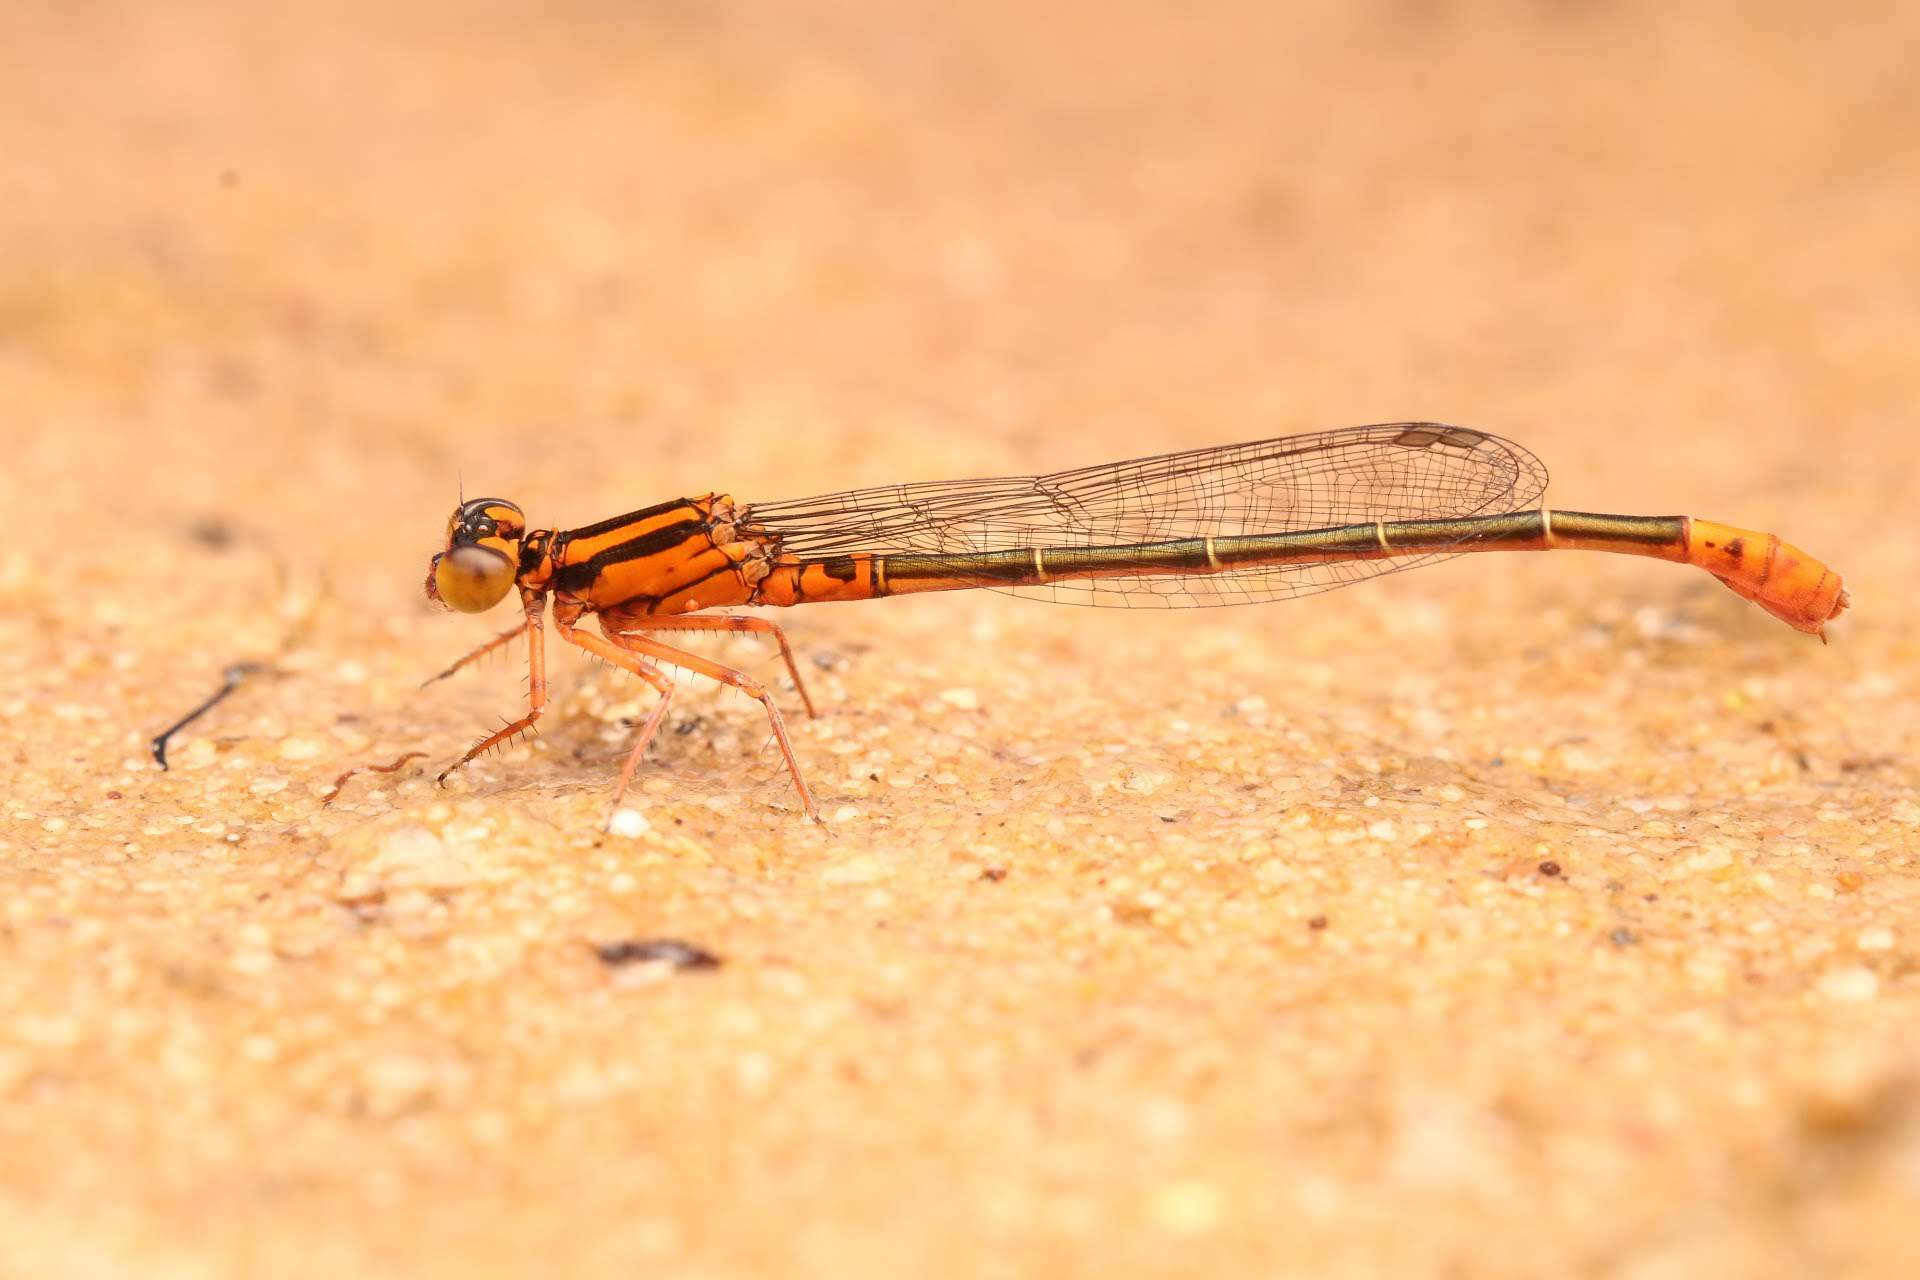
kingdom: Animalia
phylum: Arthropoda
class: Insecta
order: Odonata
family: Coenagrionidae
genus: Ischnura
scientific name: Ischnura kellicotti
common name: Lilypad forktail
